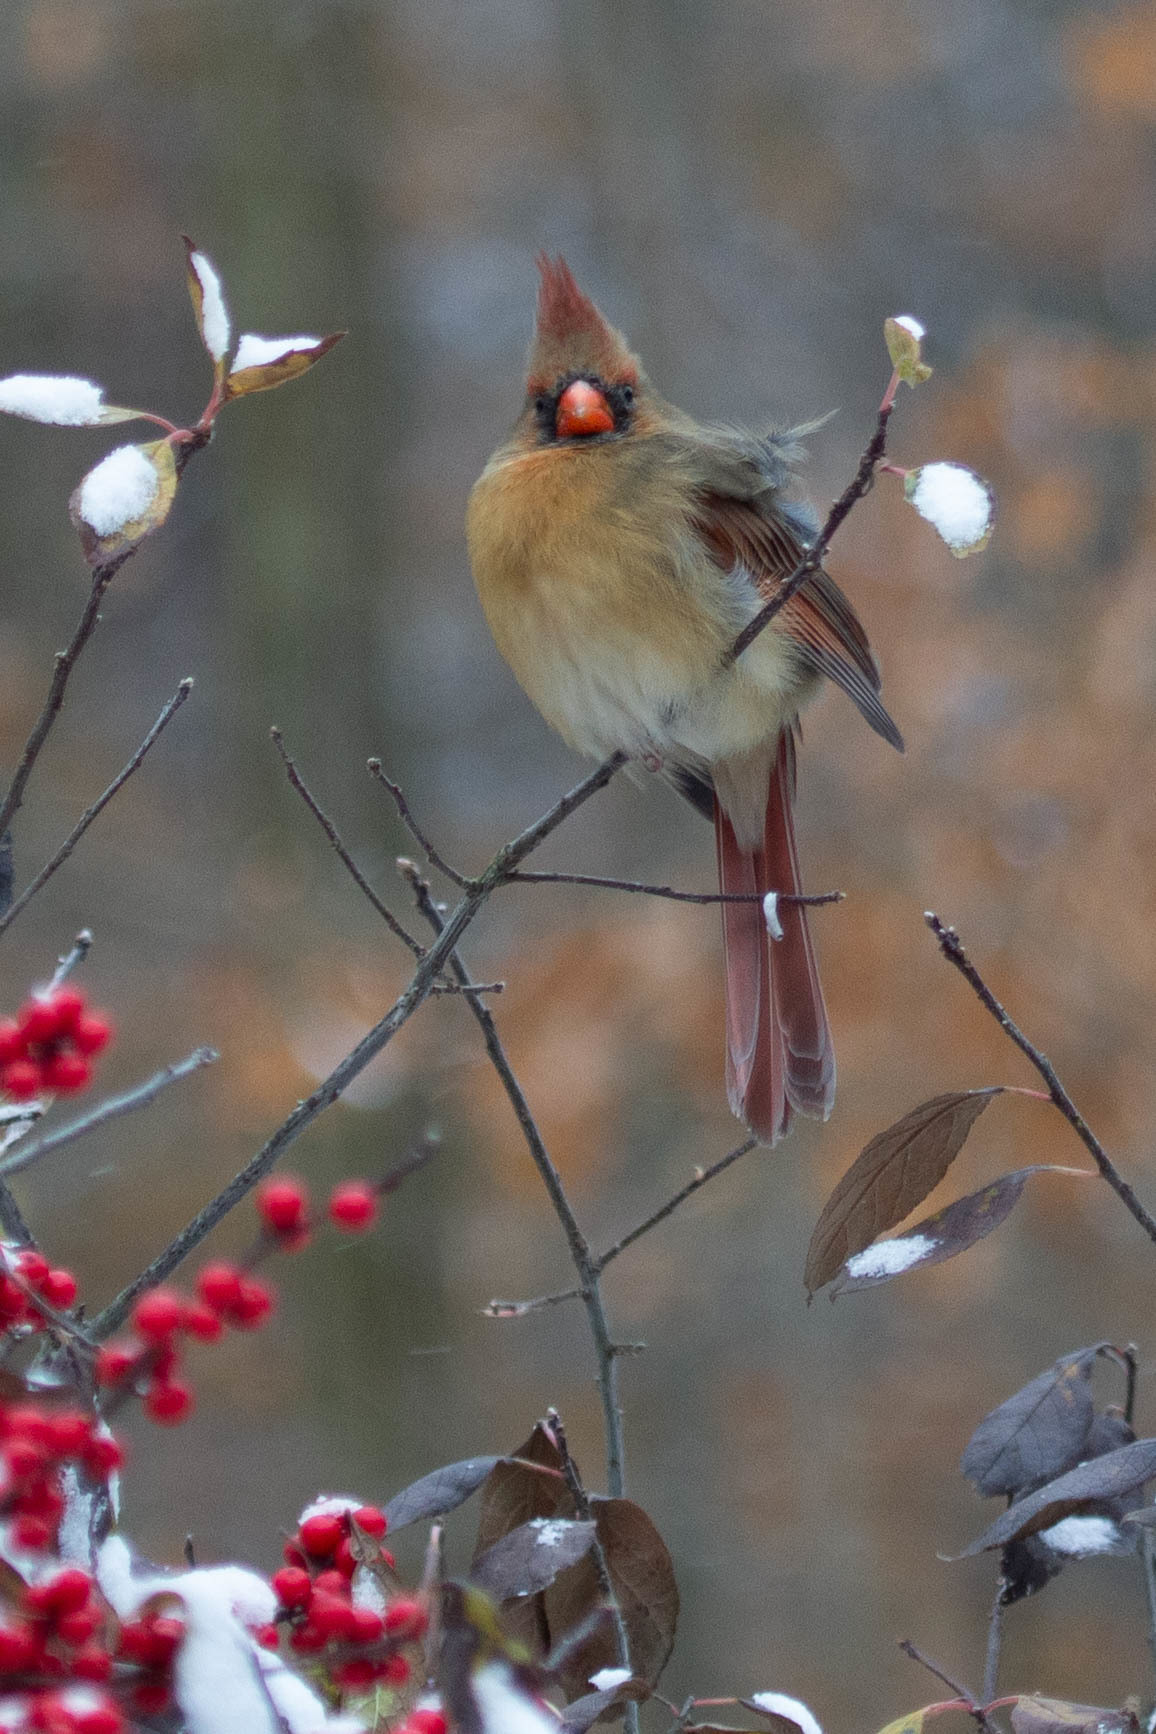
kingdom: Animalia
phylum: Chordata
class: Aves
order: Passeriformes
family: Cardinalidae
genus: Cardinalis
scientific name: Cardinalis cardinalis
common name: Northern cardinal
